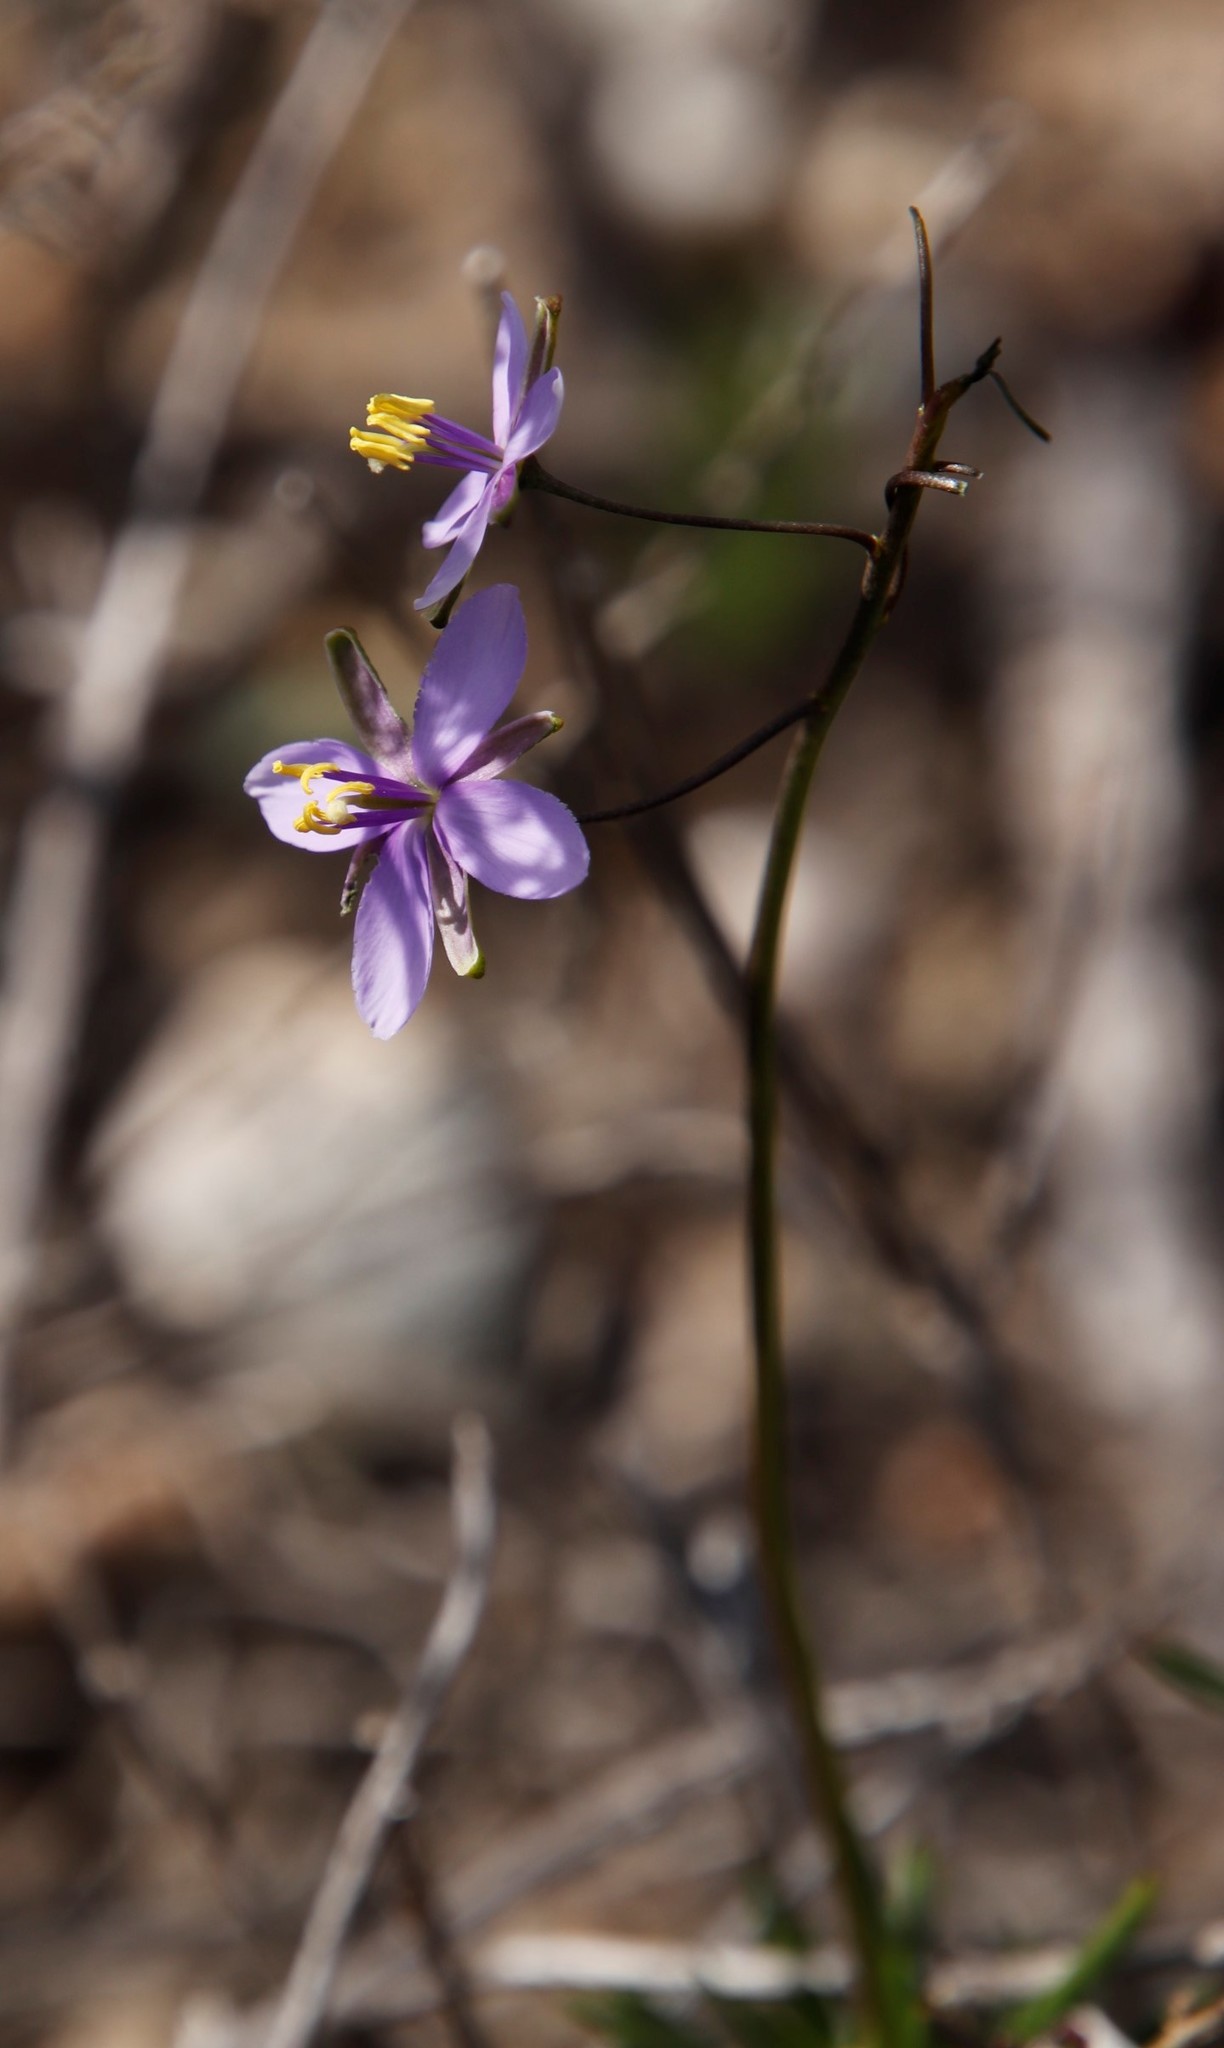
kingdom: Plantae
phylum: Tracheophyta
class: Magnoliopsida
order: Brassicales
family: Brassicaceae
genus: Heliophila
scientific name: Heliophila subulata
